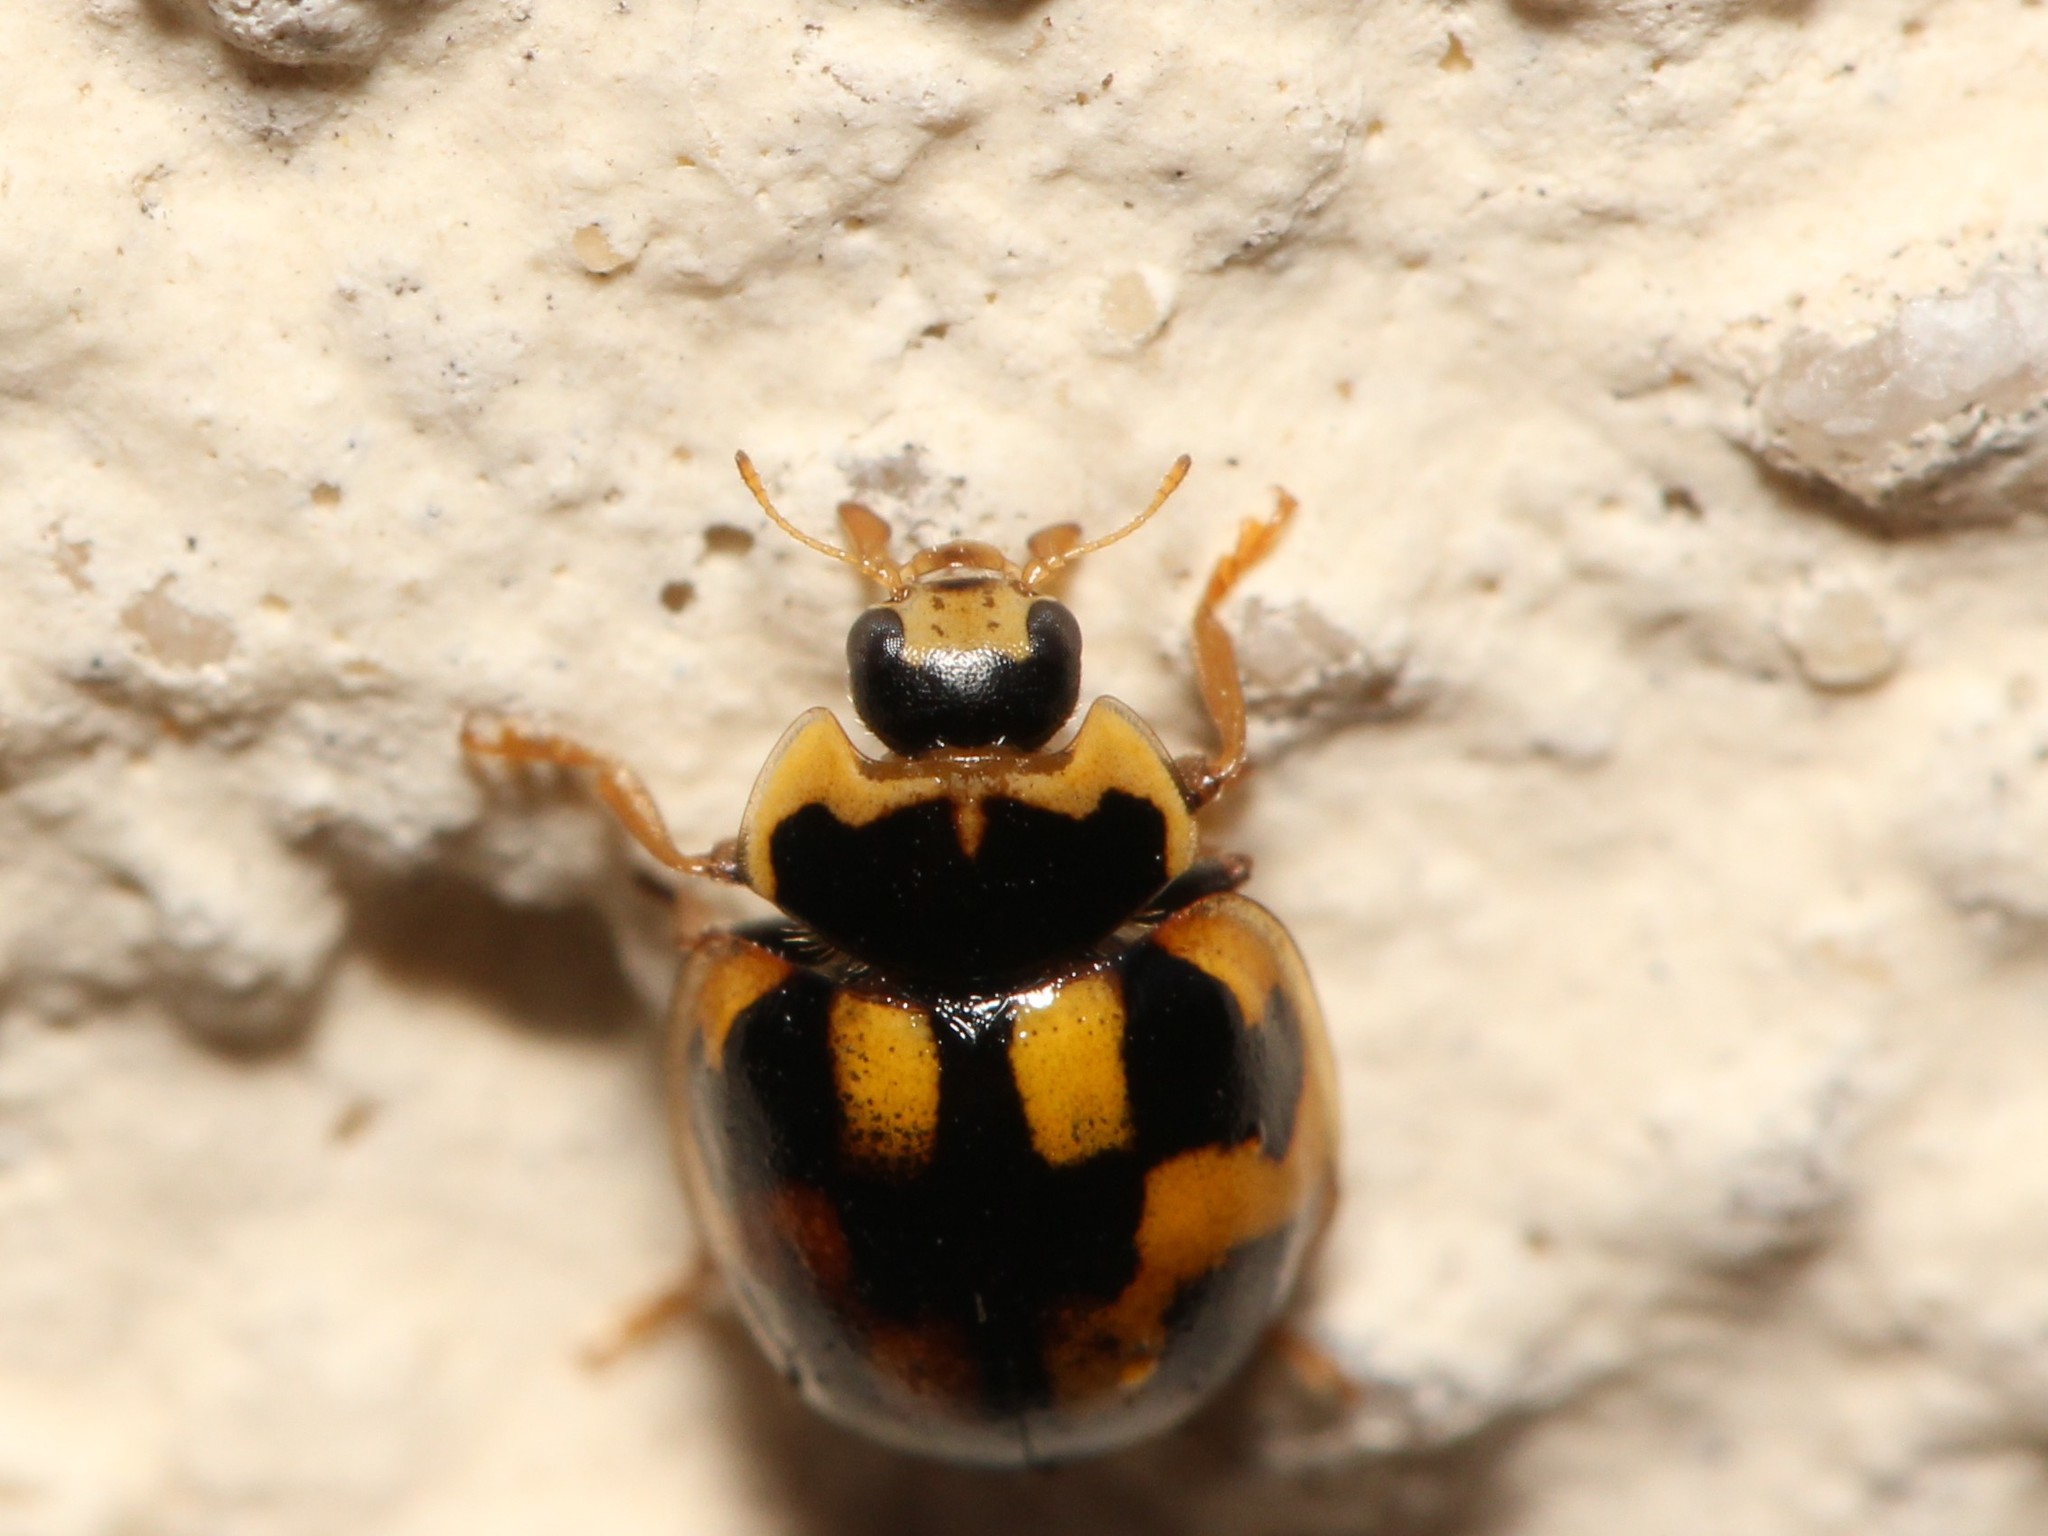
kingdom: Animalia
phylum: Arthropoda
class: Insecta
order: Coleoptera
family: Coccinellidae
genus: Propylaea
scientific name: Propylaea quatuordecimpunctata
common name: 14-spotted ladybird beetle
